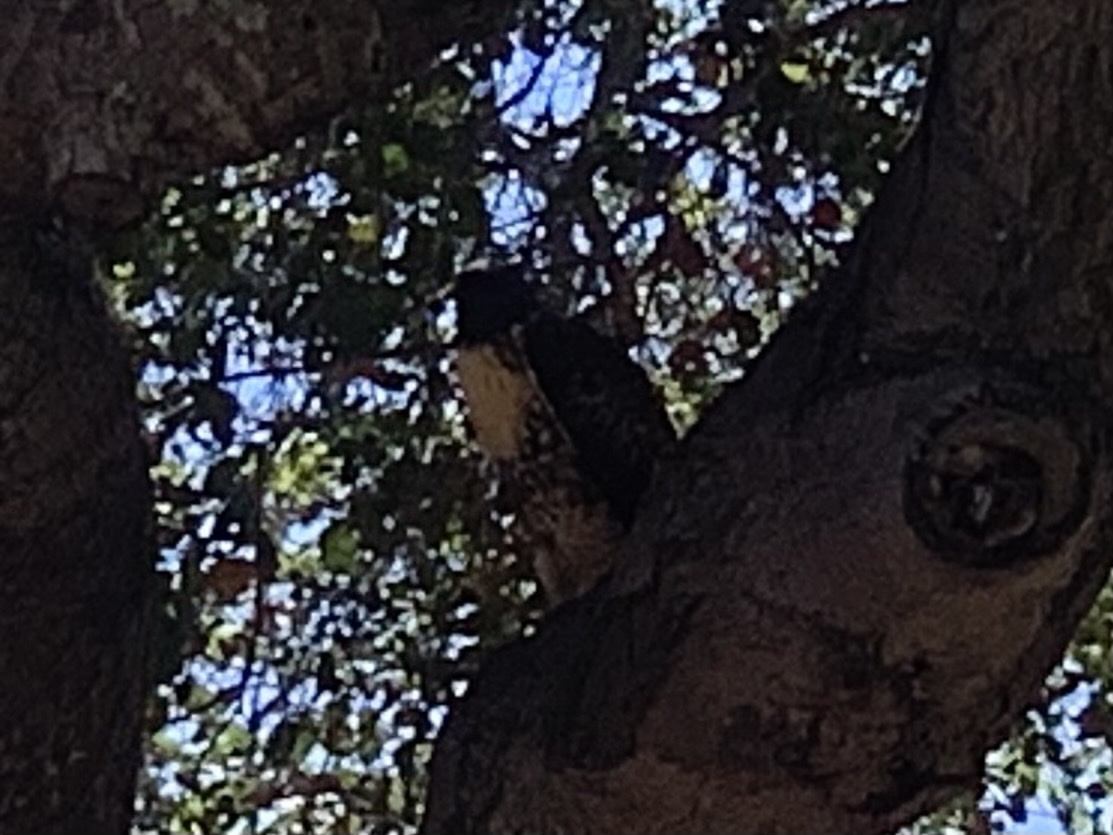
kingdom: Animalia
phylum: Chordata
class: Aves
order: Accipitriformes
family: Accipitridae
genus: Buteo
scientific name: Buteo jamaicensis
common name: Red-tailed hawk
